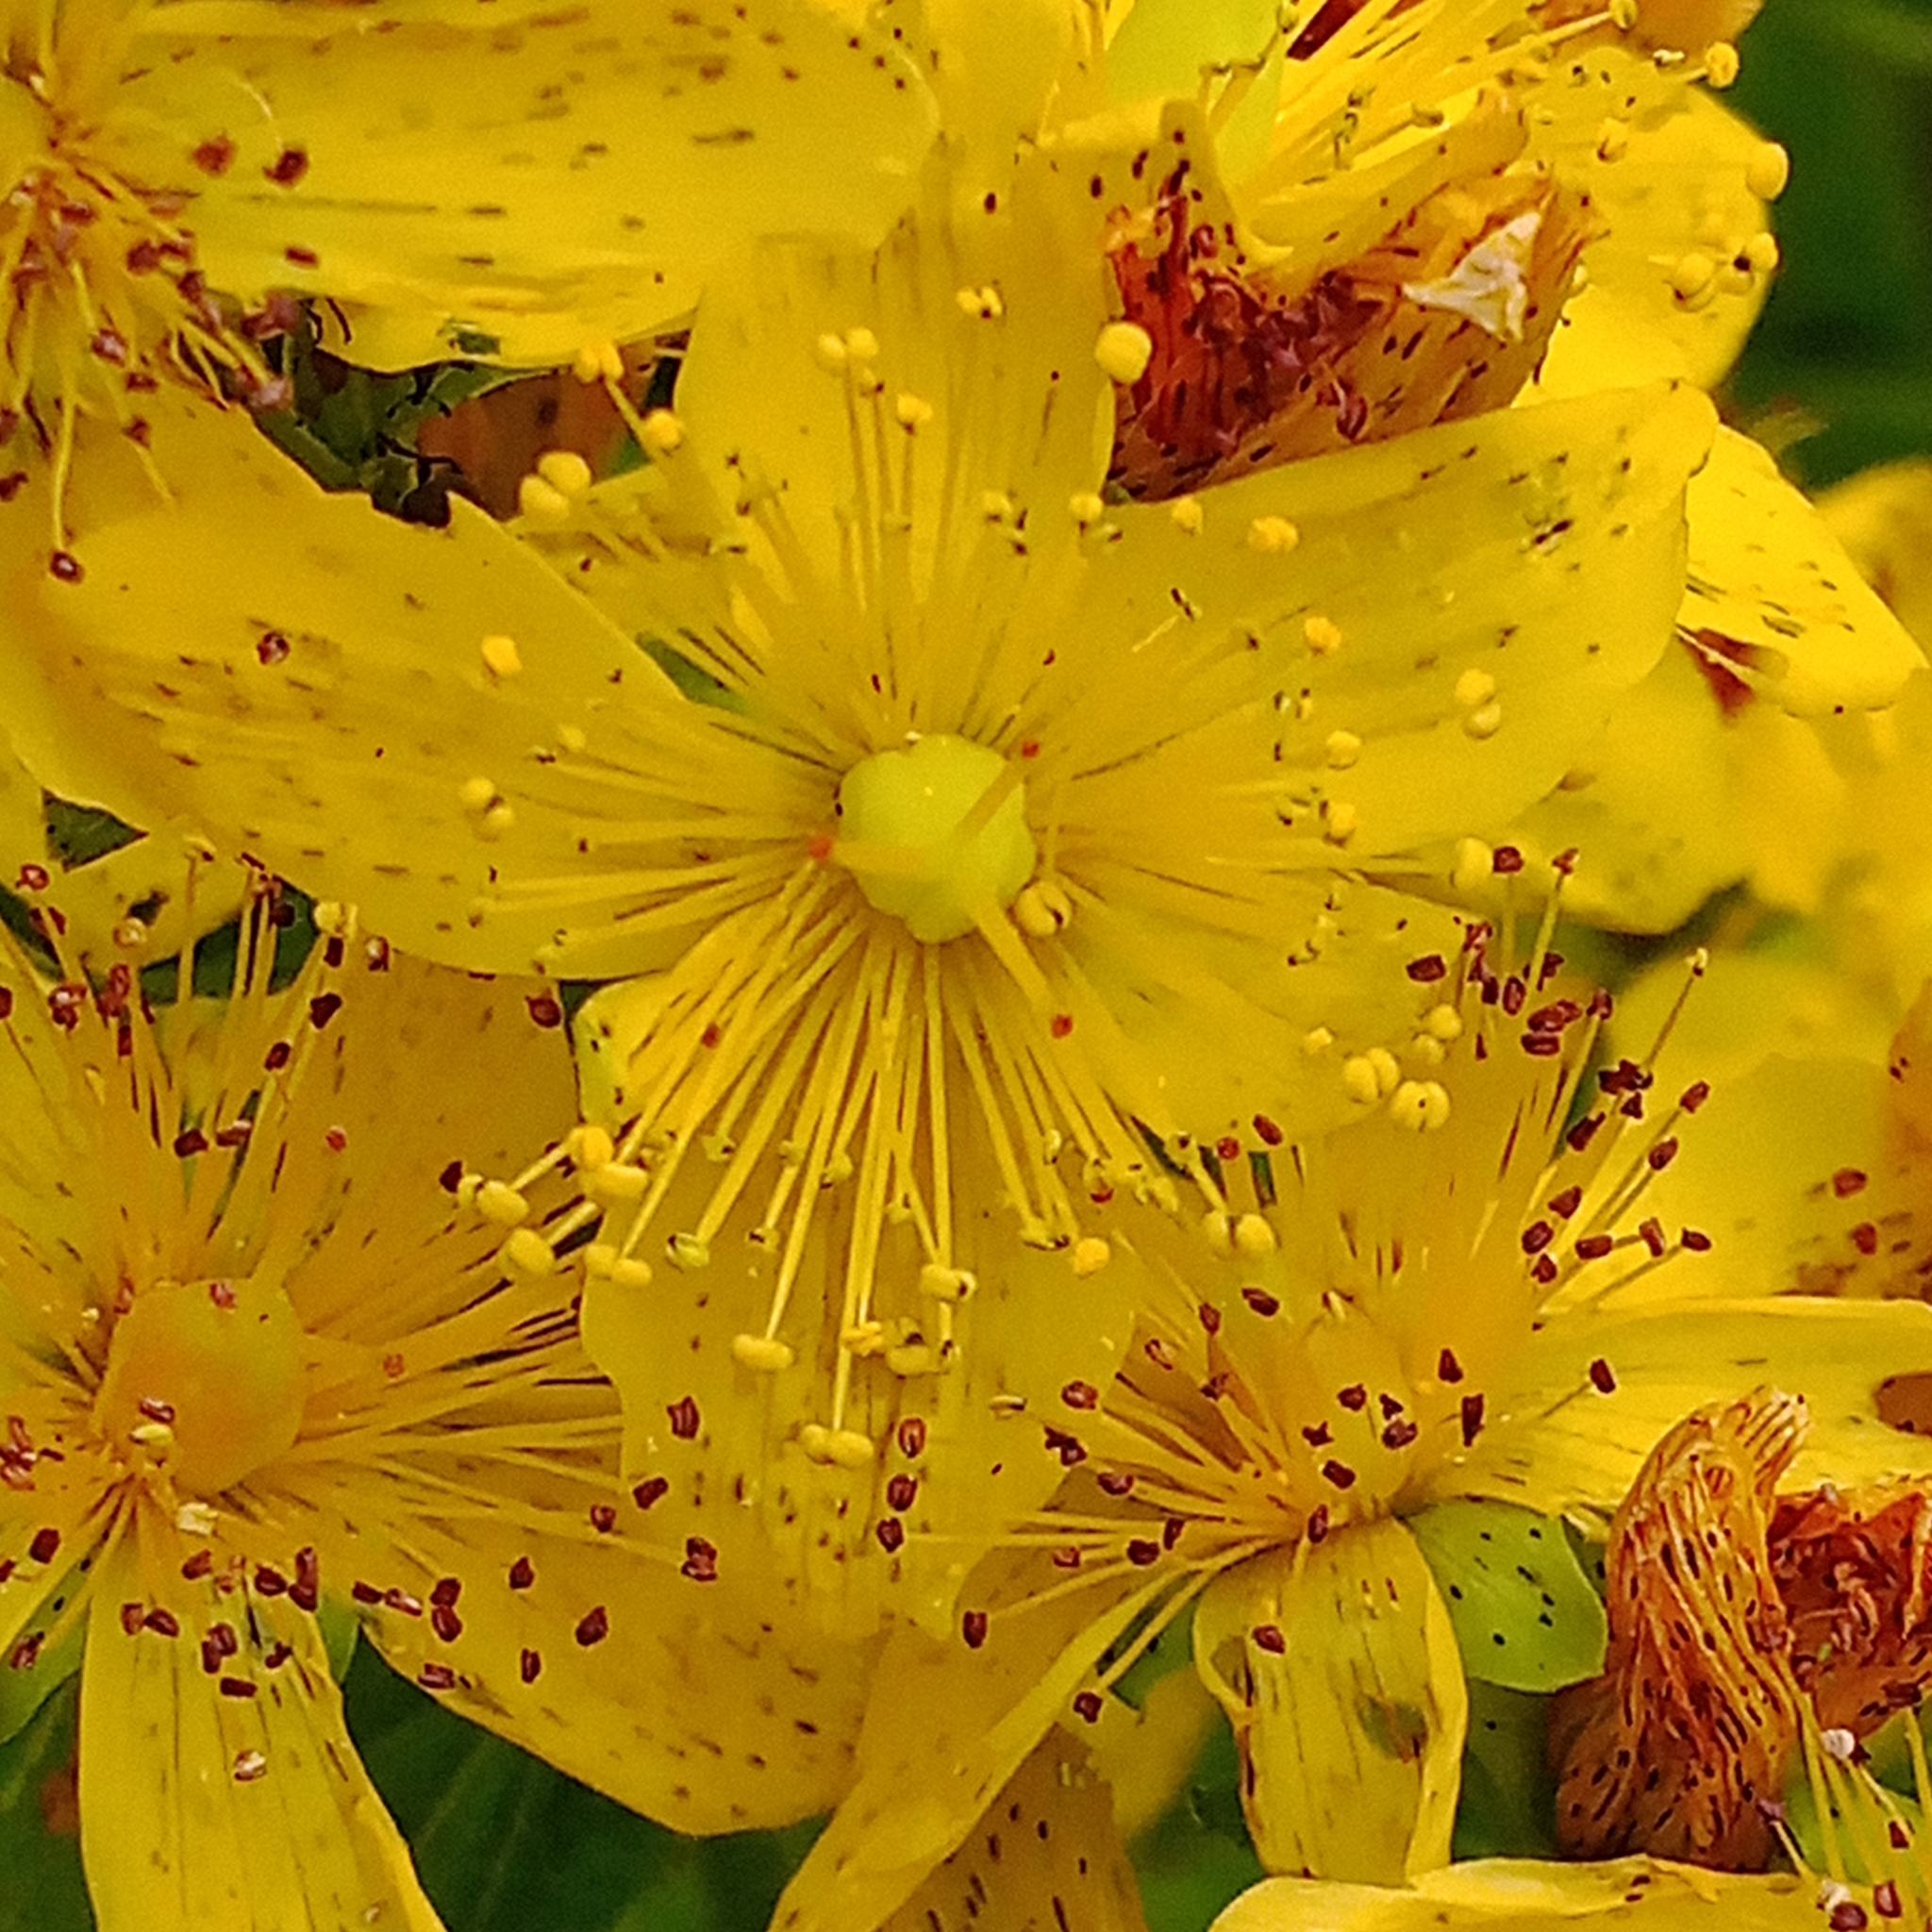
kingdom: Plantae
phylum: Tracheophyta
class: Magnoliopsida
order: Malpighiales
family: Hypericaceae
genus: Hypericum
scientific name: Hypericum maculatum
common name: Imperforate st. john's-wort
